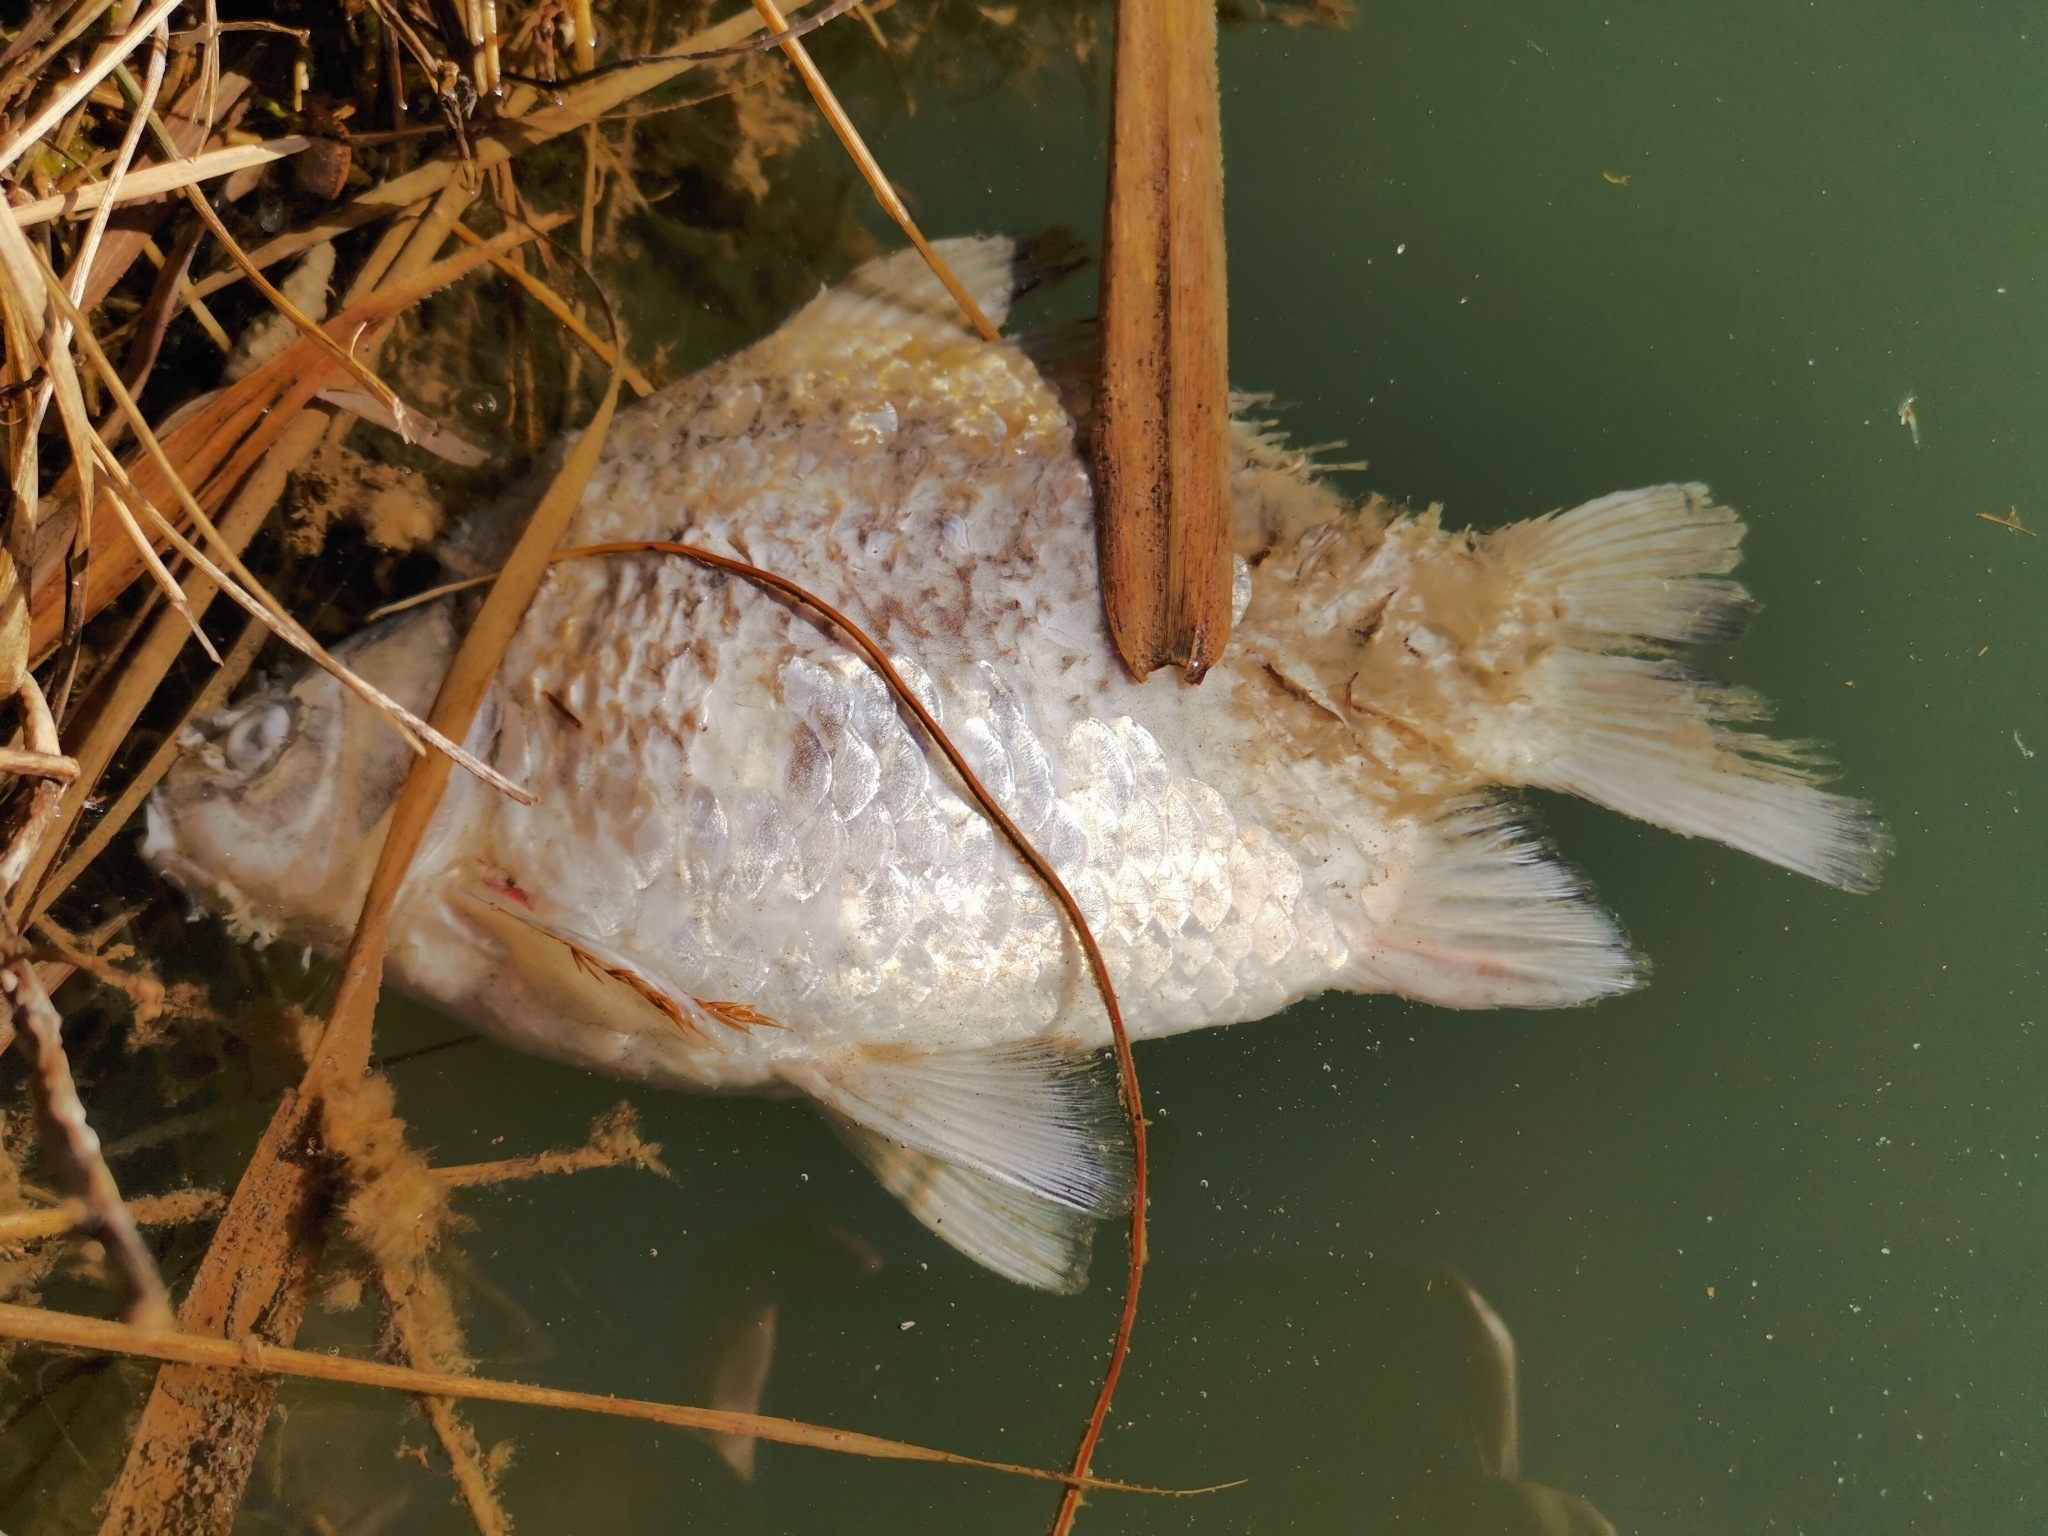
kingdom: Animalia
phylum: Chordata
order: Cypriniformes
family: Cyprinidae
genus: Carassius
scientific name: Carassius gibelio
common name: Prussian carp
